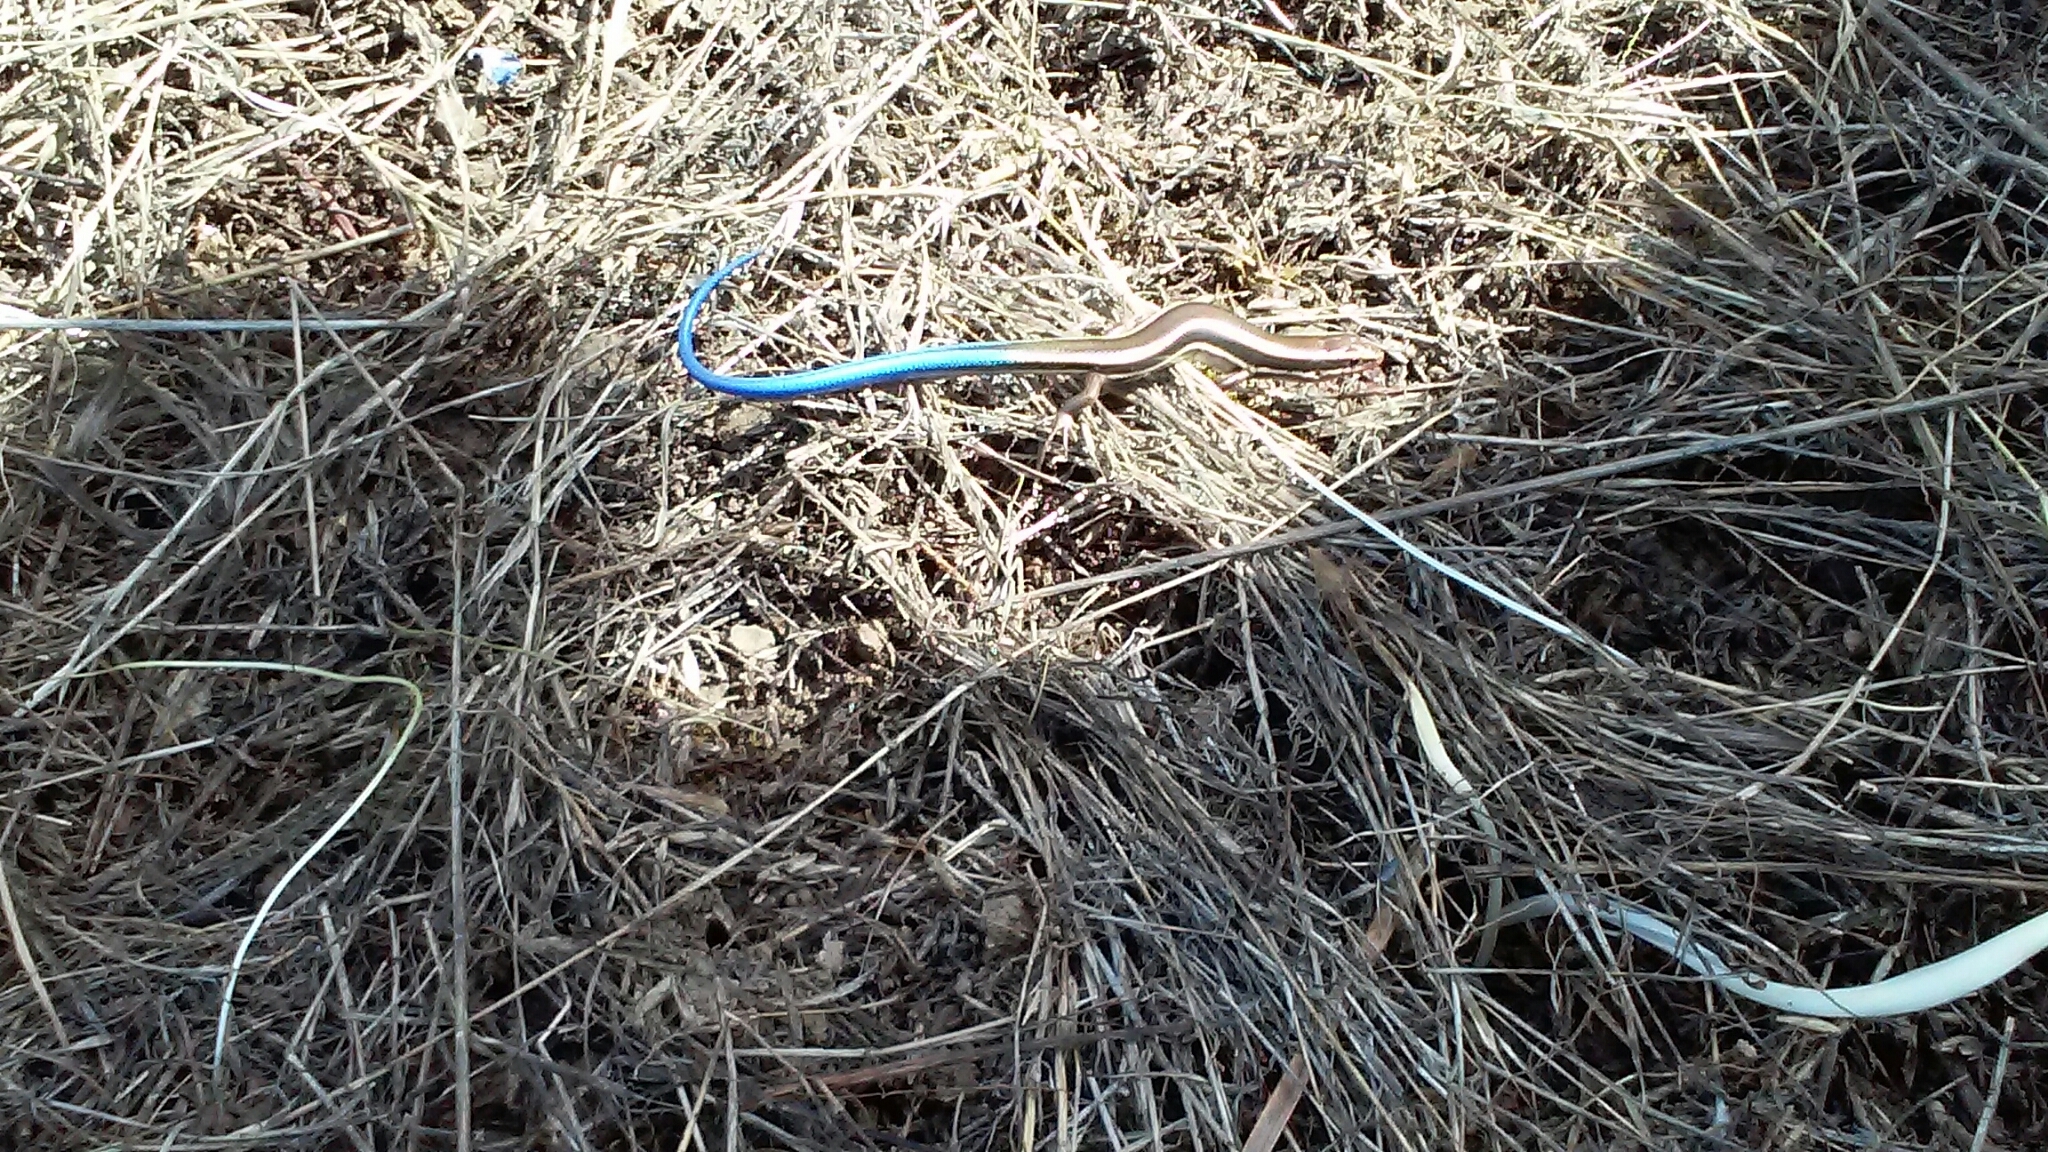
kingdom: Animalia
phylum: Chordata
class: Squamata
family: Scincidae
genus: Plestiodon
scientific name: Plestiodon skiltonianus
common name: Coronado island skink [interparietalis]
